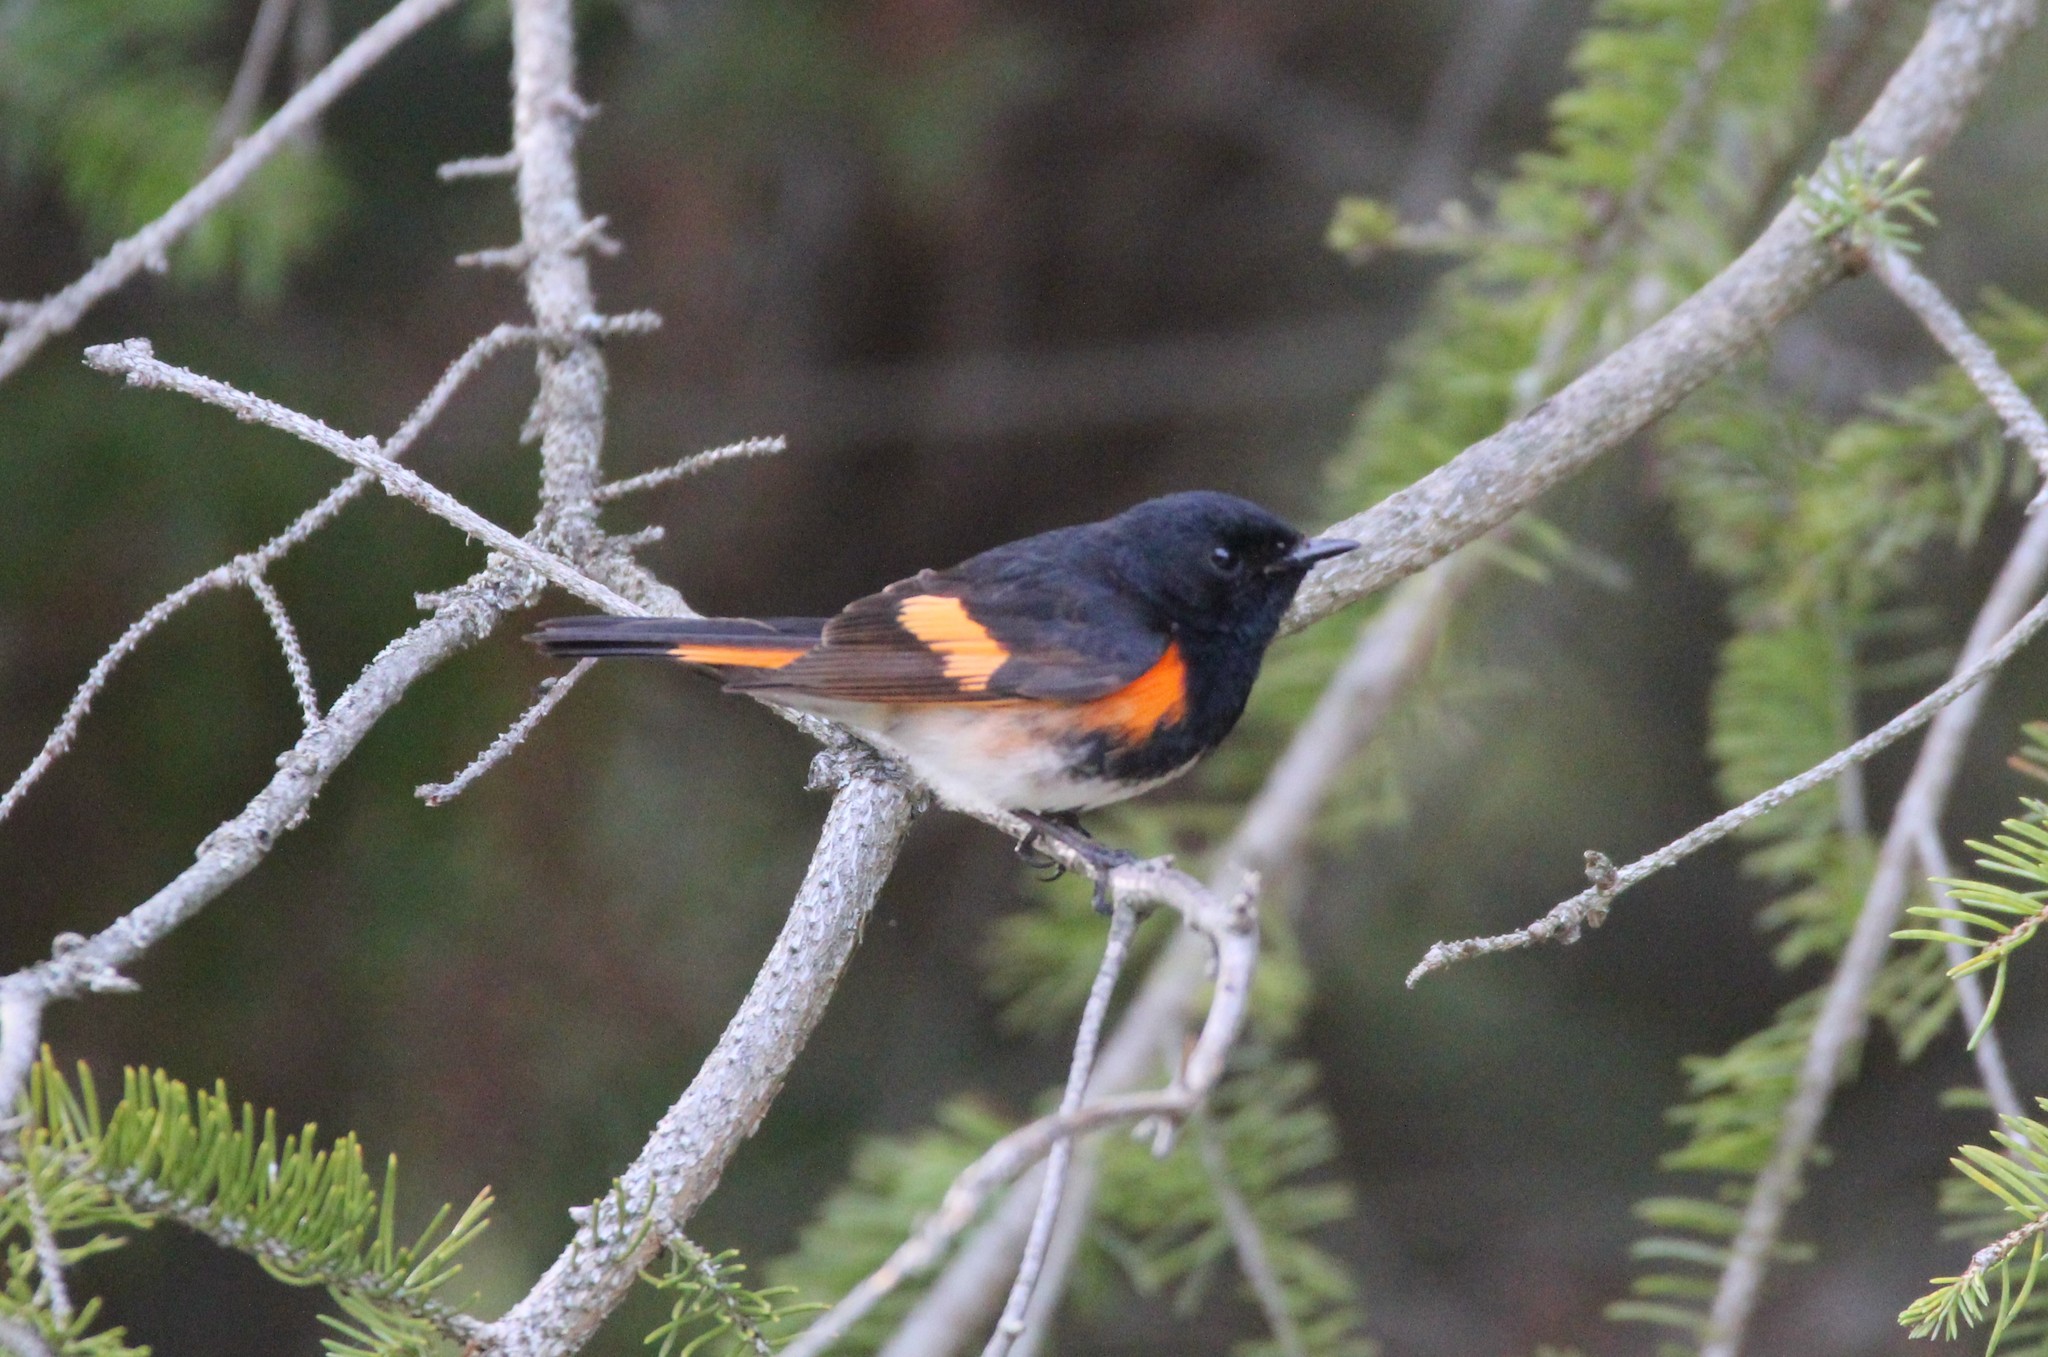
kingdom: Animalia
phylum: Chordata
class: Aves
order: Passeriformes
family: Parulidae
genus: Setophaga
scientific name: Setophaga ruticilla
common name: American redstart
